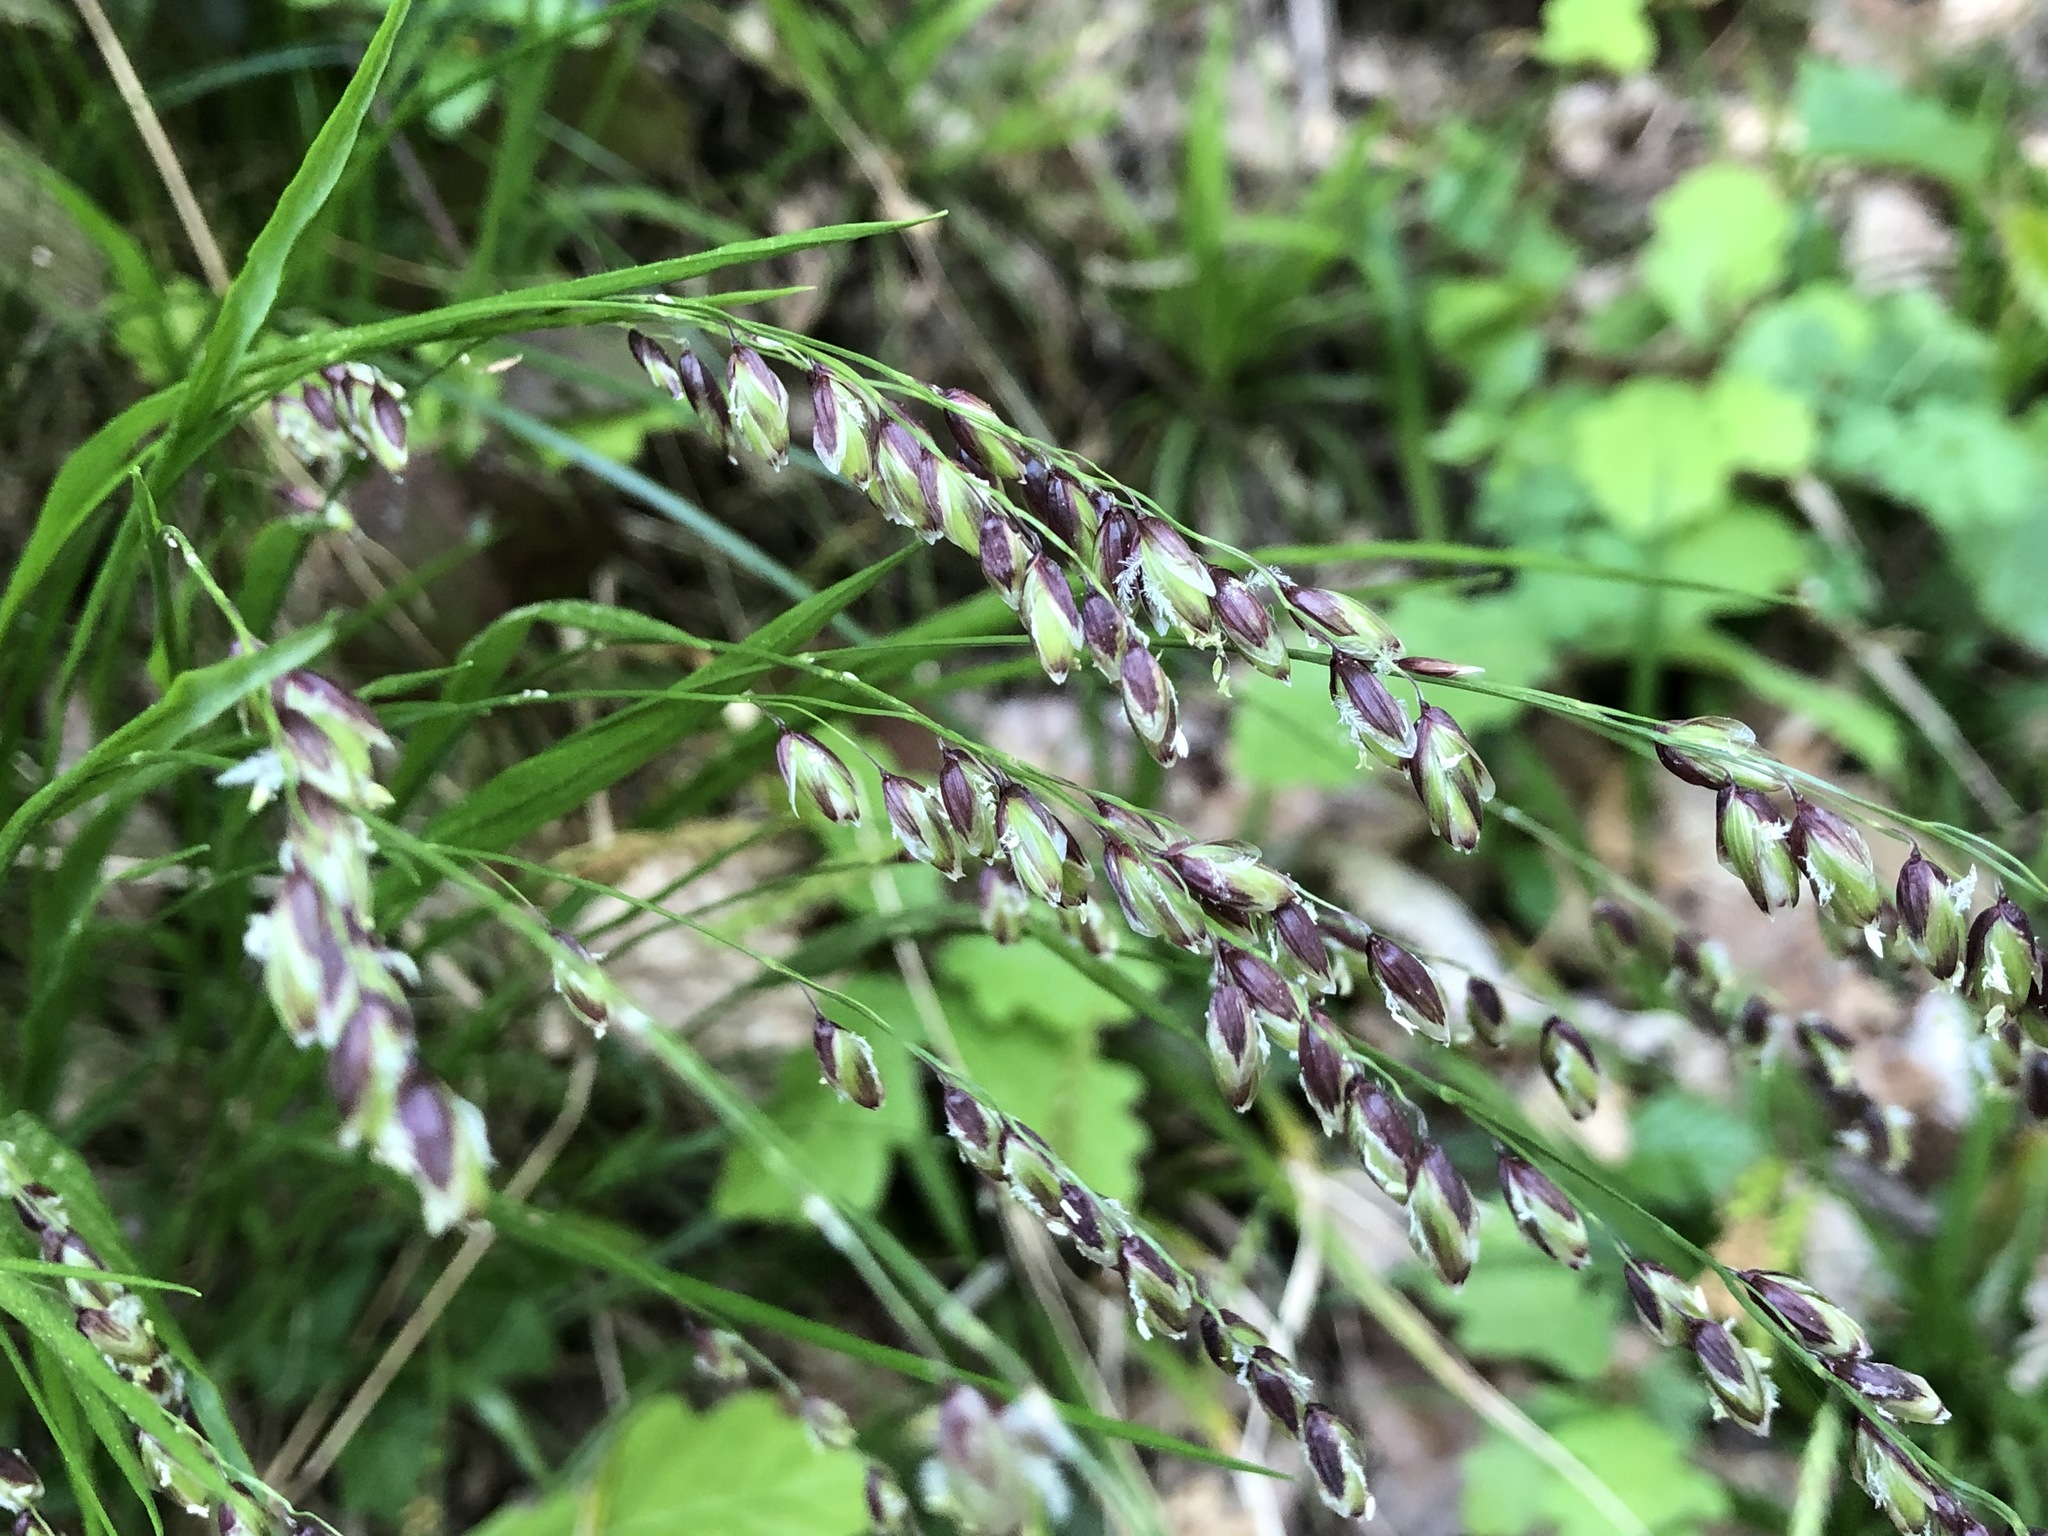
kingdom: Plantae
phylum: Tracheophyta
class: Liliopsida
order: Poales
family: Poaceae
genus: Melica
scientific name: Melica nutans
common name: Mountain melick
